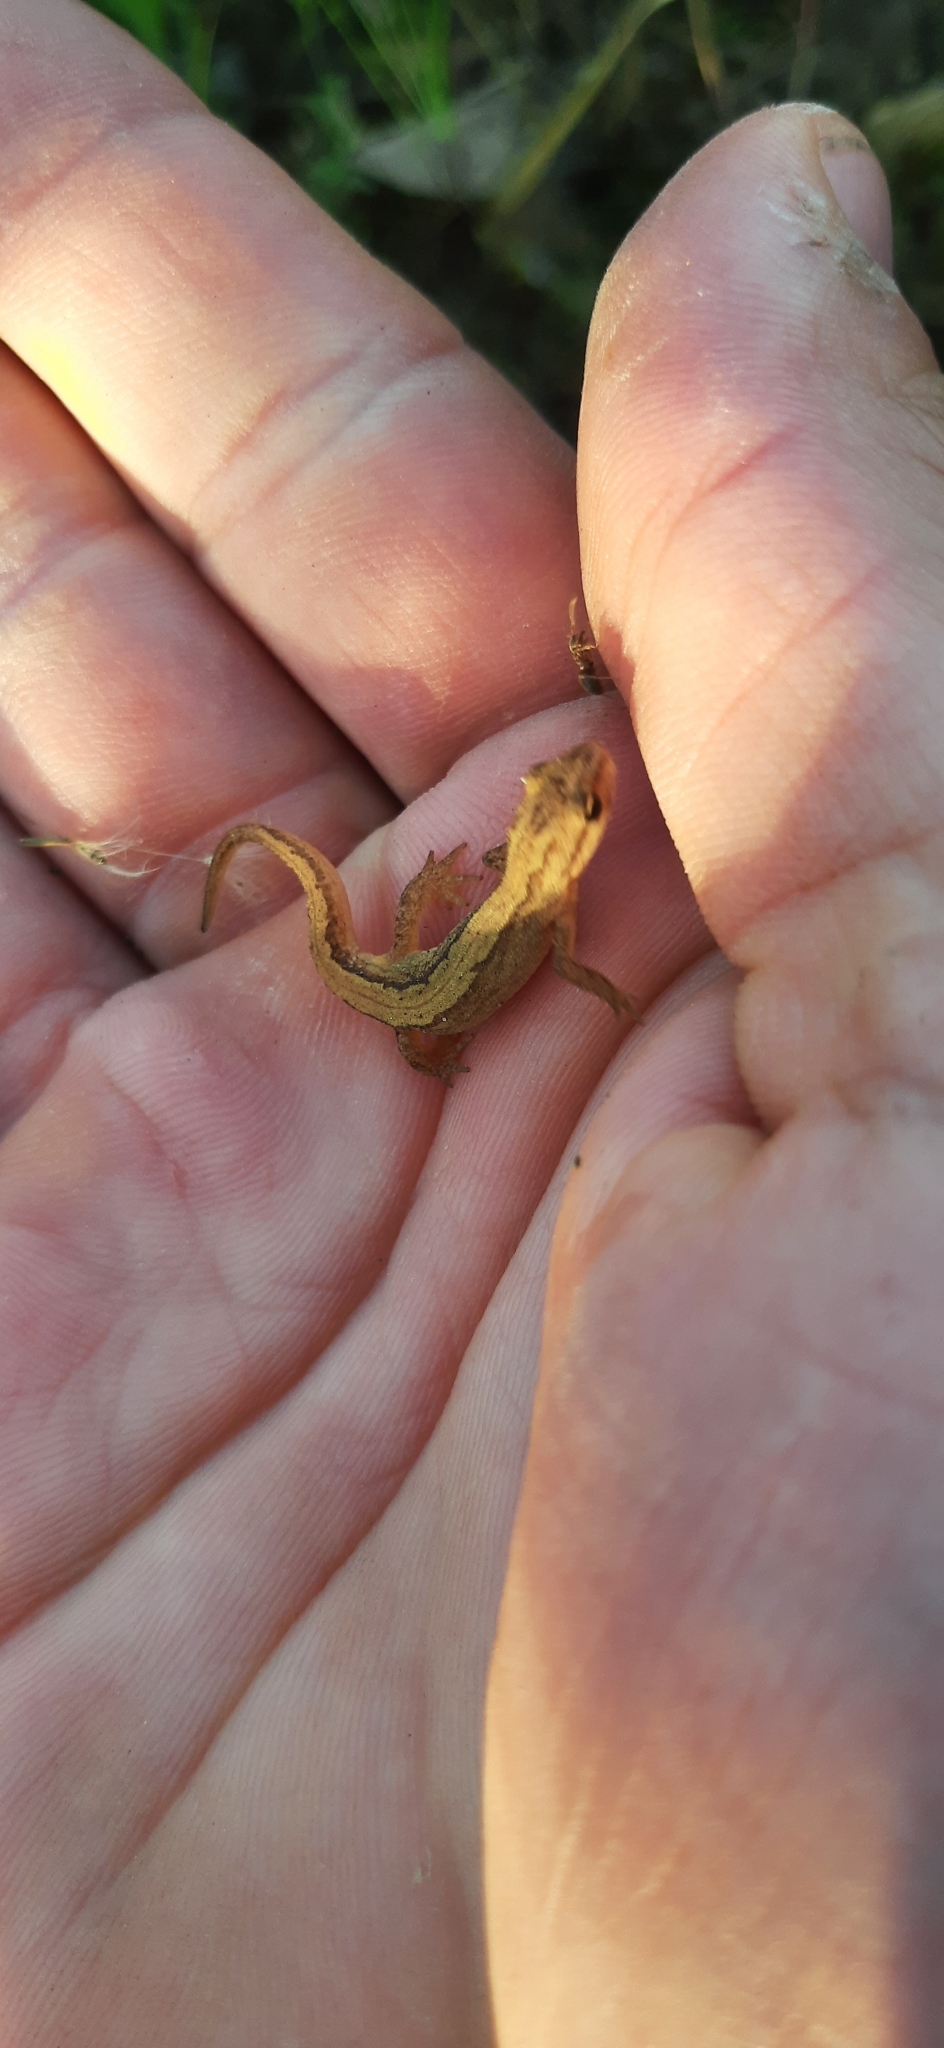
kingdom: Animalia
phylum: Chordata
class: Amphibia
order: Caudata
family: Salamandridae
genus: Lissotriton
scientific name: Lissotriton vulgaris
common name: Smooth newt
